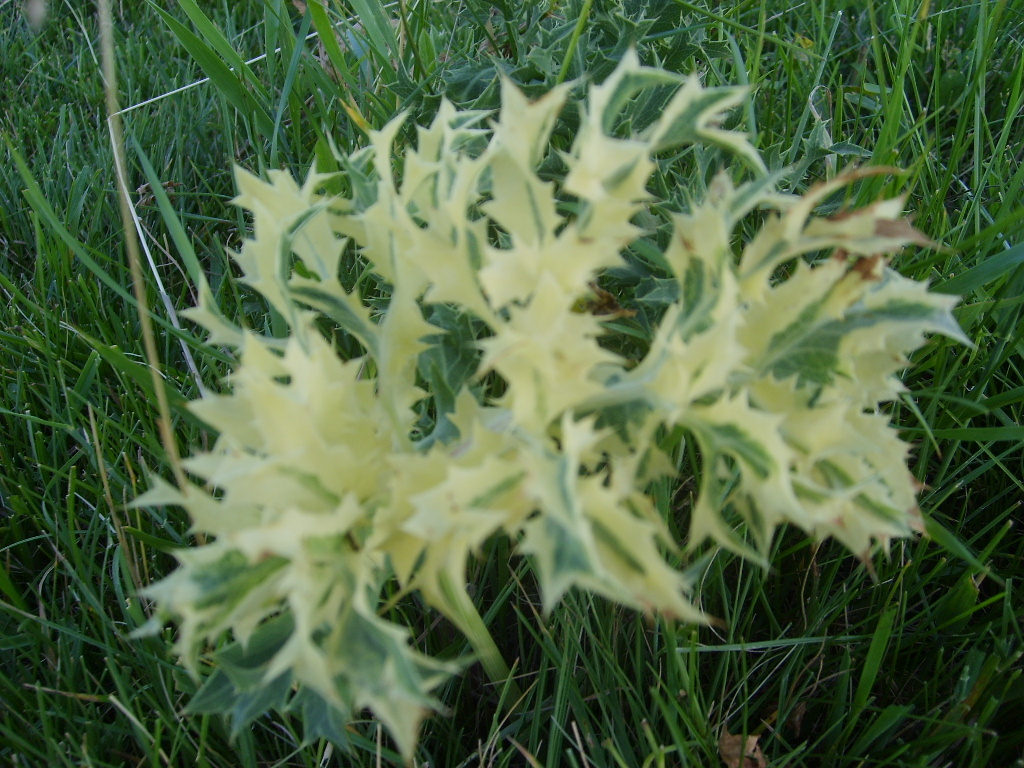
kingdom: Plantae
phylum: Tracheophyta
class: Magnoliopsida
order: Apiales
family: Apiaceae
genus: Eryngium
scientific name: Eryngium campestre
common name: Field eryngo
